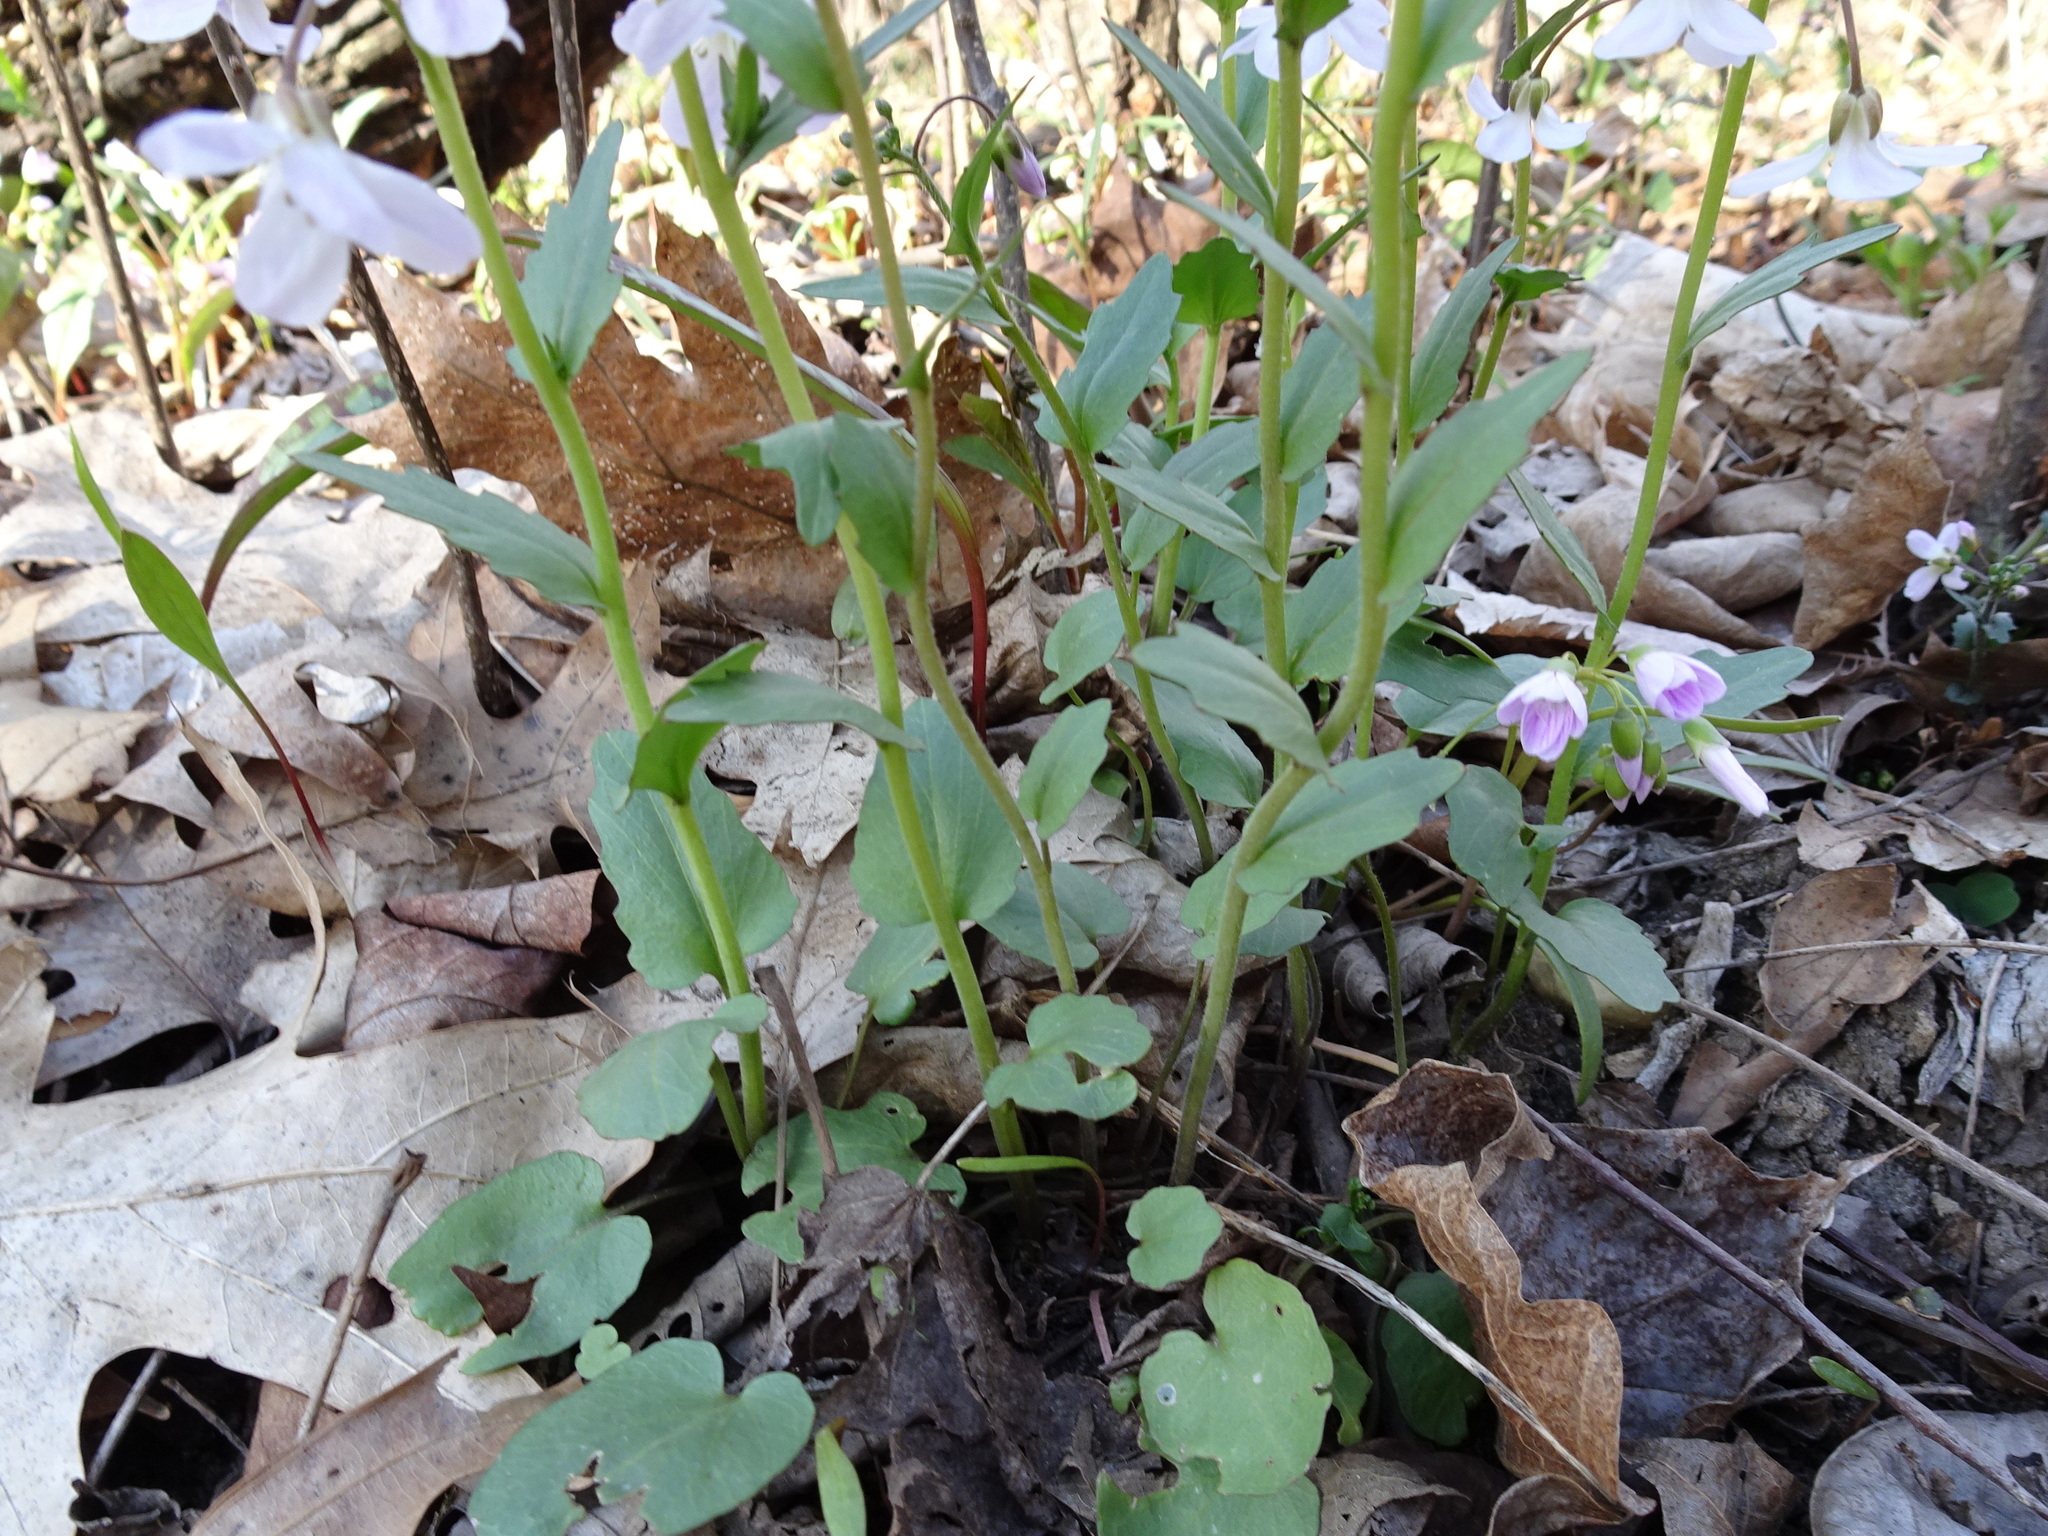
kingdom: Plantae
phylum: Tracheophyta
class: Magnoliopsida
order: Brassicales
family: Brassicaceae
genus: Cardamine
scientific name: Cardamine douglassii
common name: Purple cress
